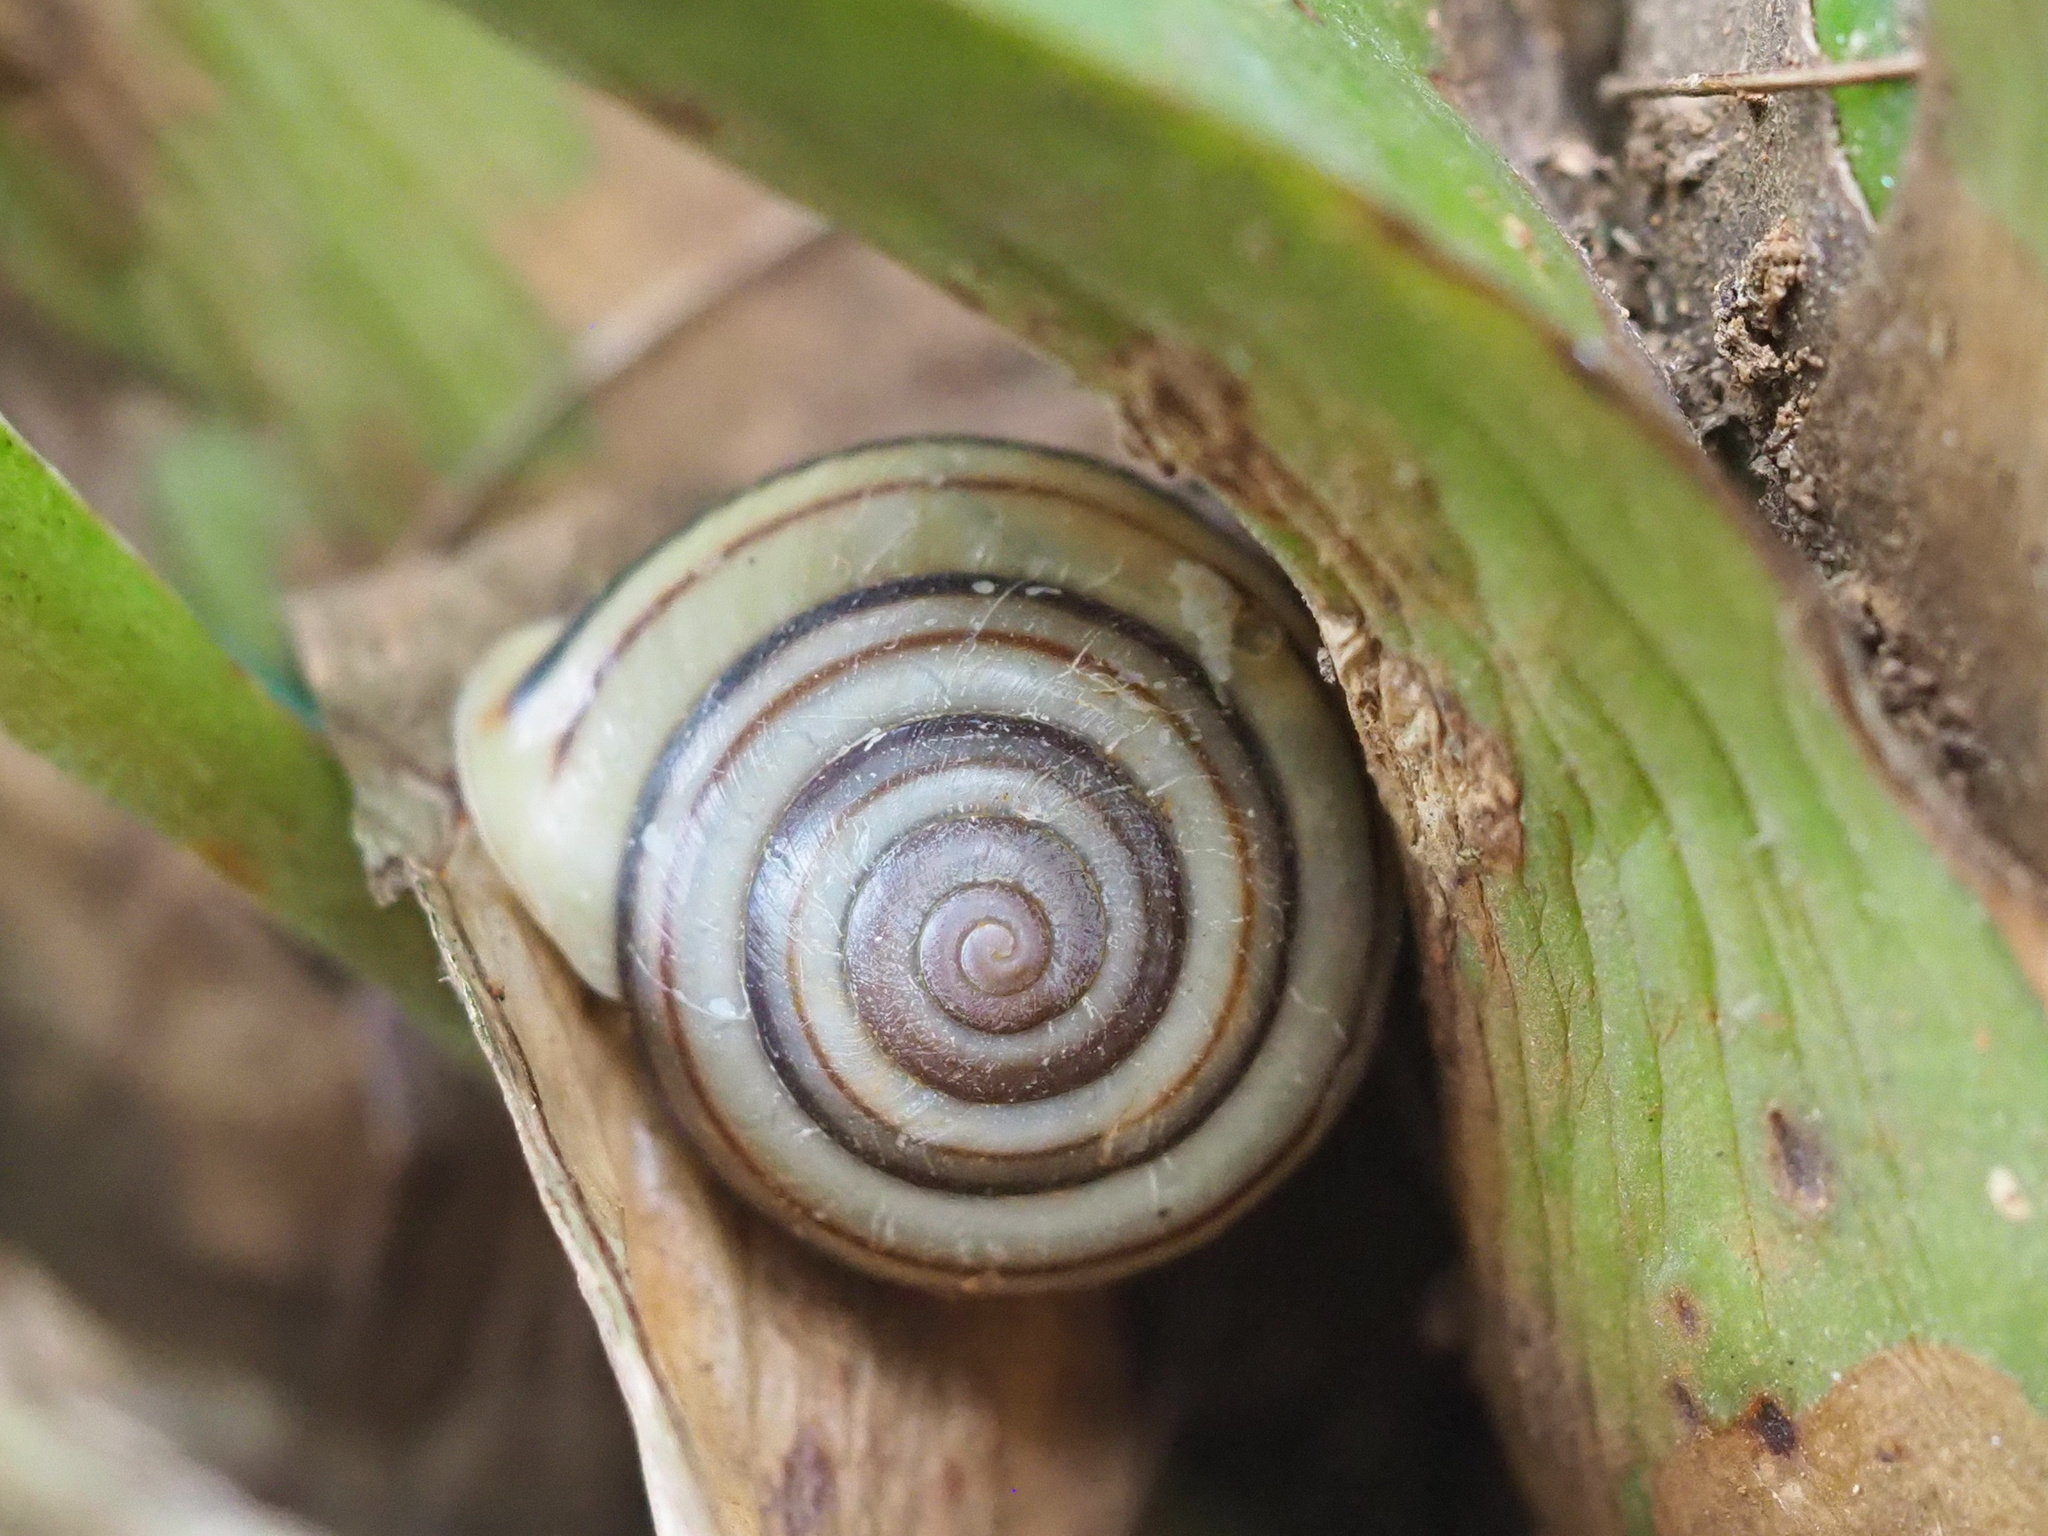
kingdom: Animalia
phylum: Mollusca
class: Gastropoda
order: Stylommatophora
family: Camaenidae
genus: Pancala
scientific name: Pancala batanica
